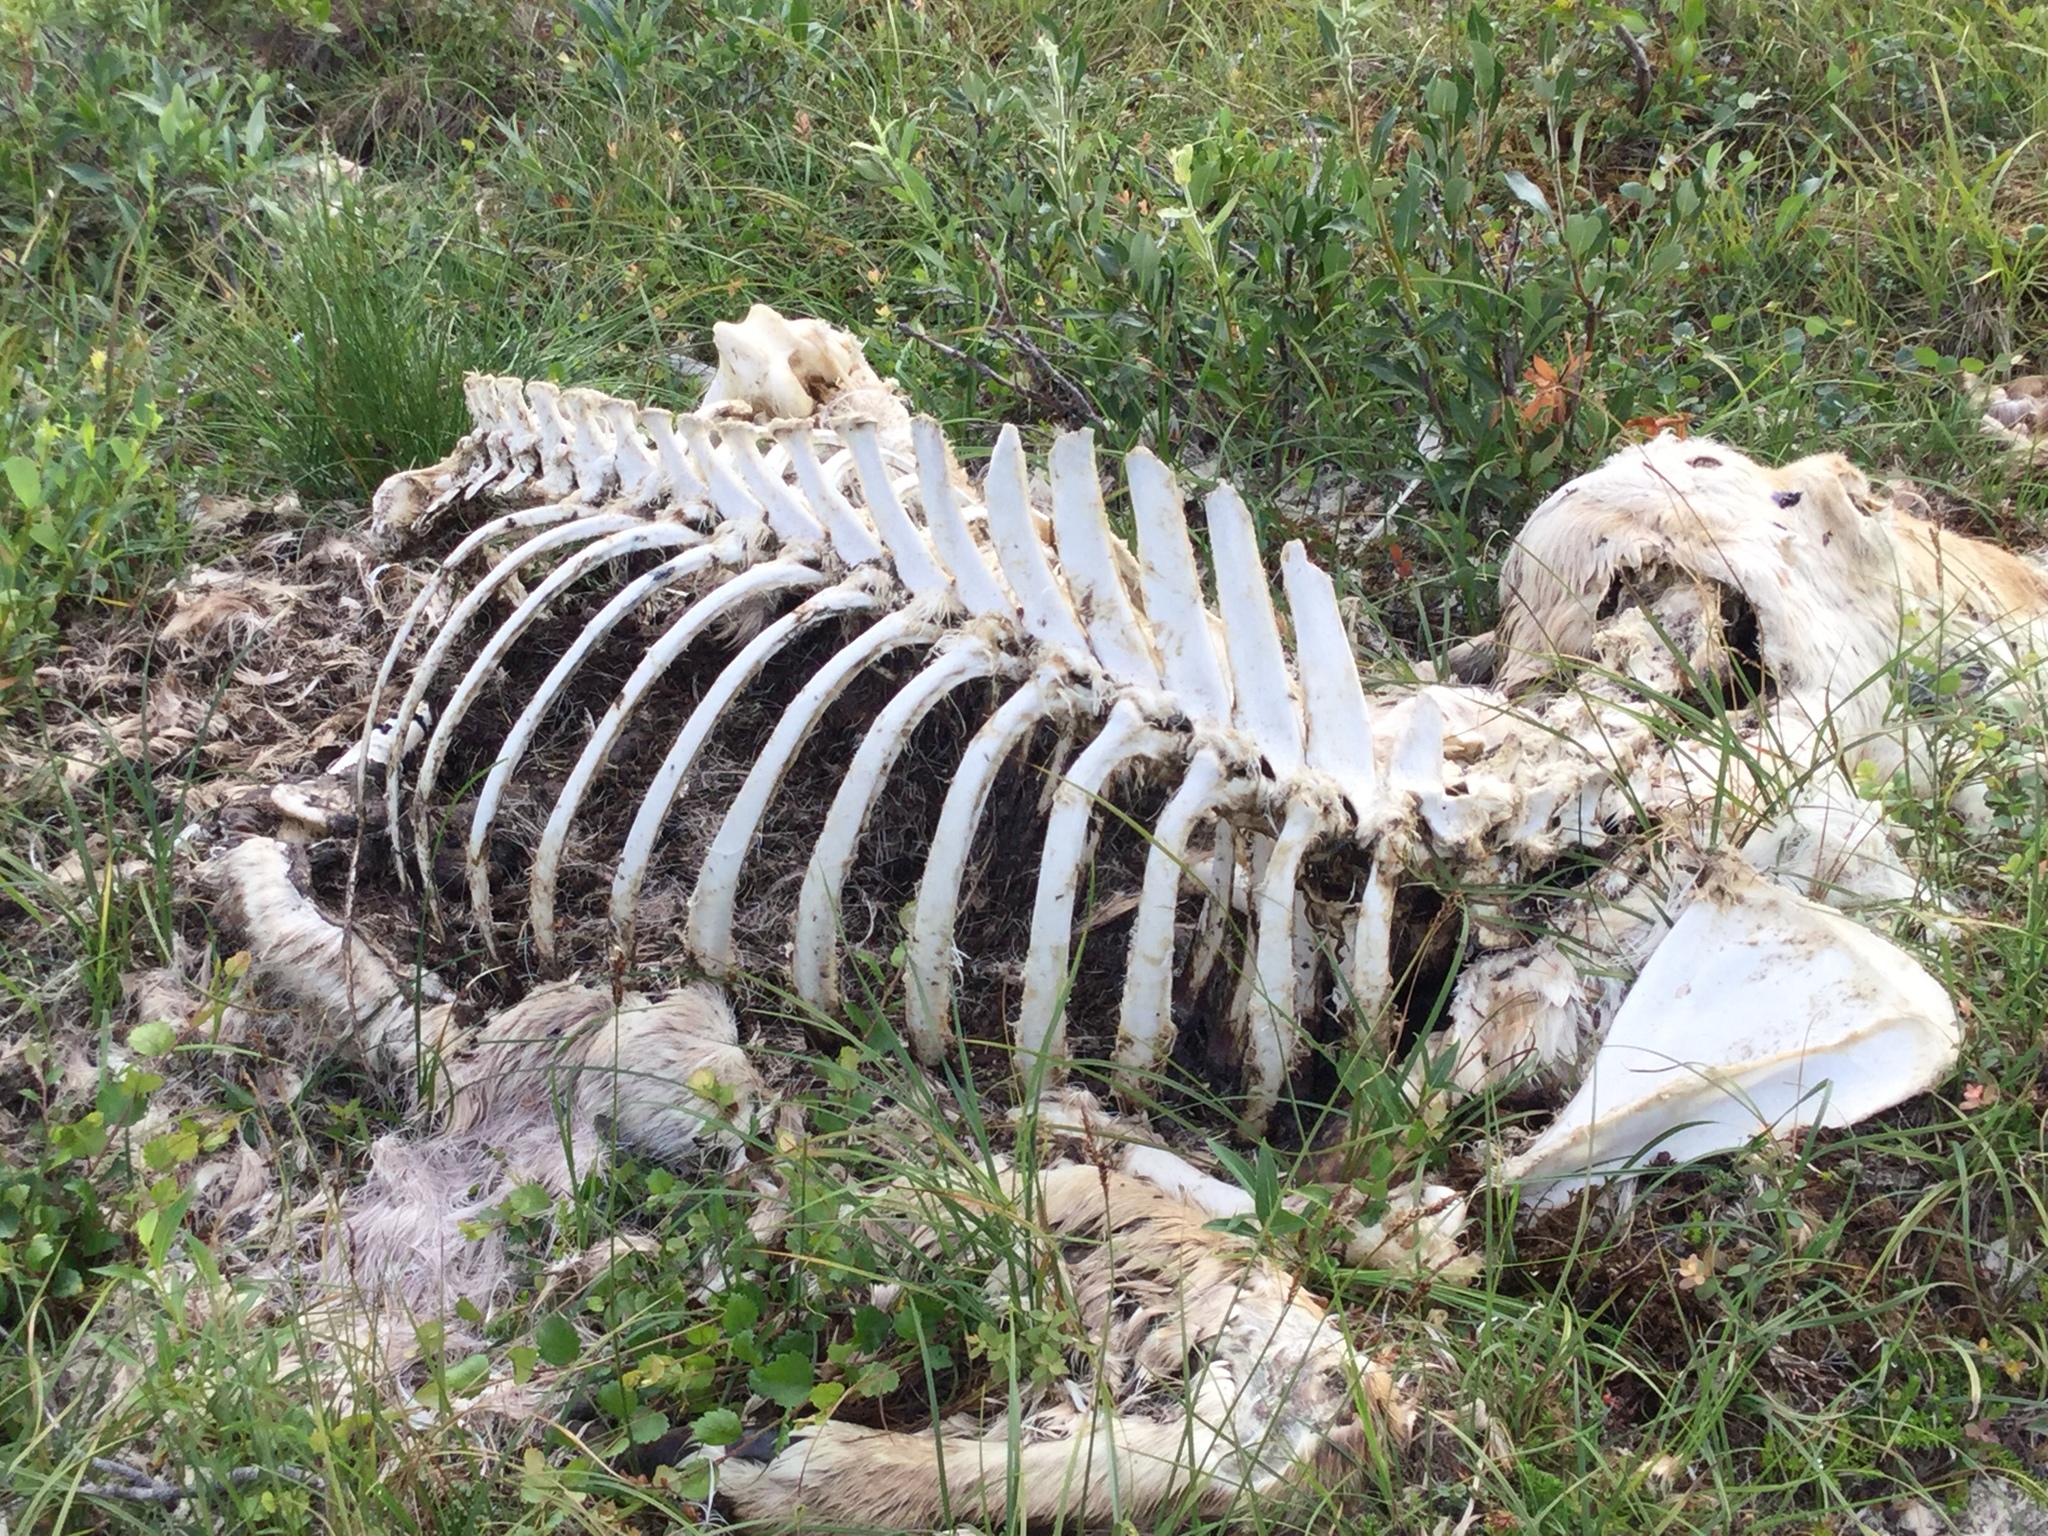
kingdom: Animalia
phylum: Chordata
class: Mammalia
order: Artiodactyla
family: Cervidae
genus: Rangifer
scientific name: Rangifer tarandus
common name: Reindeer
